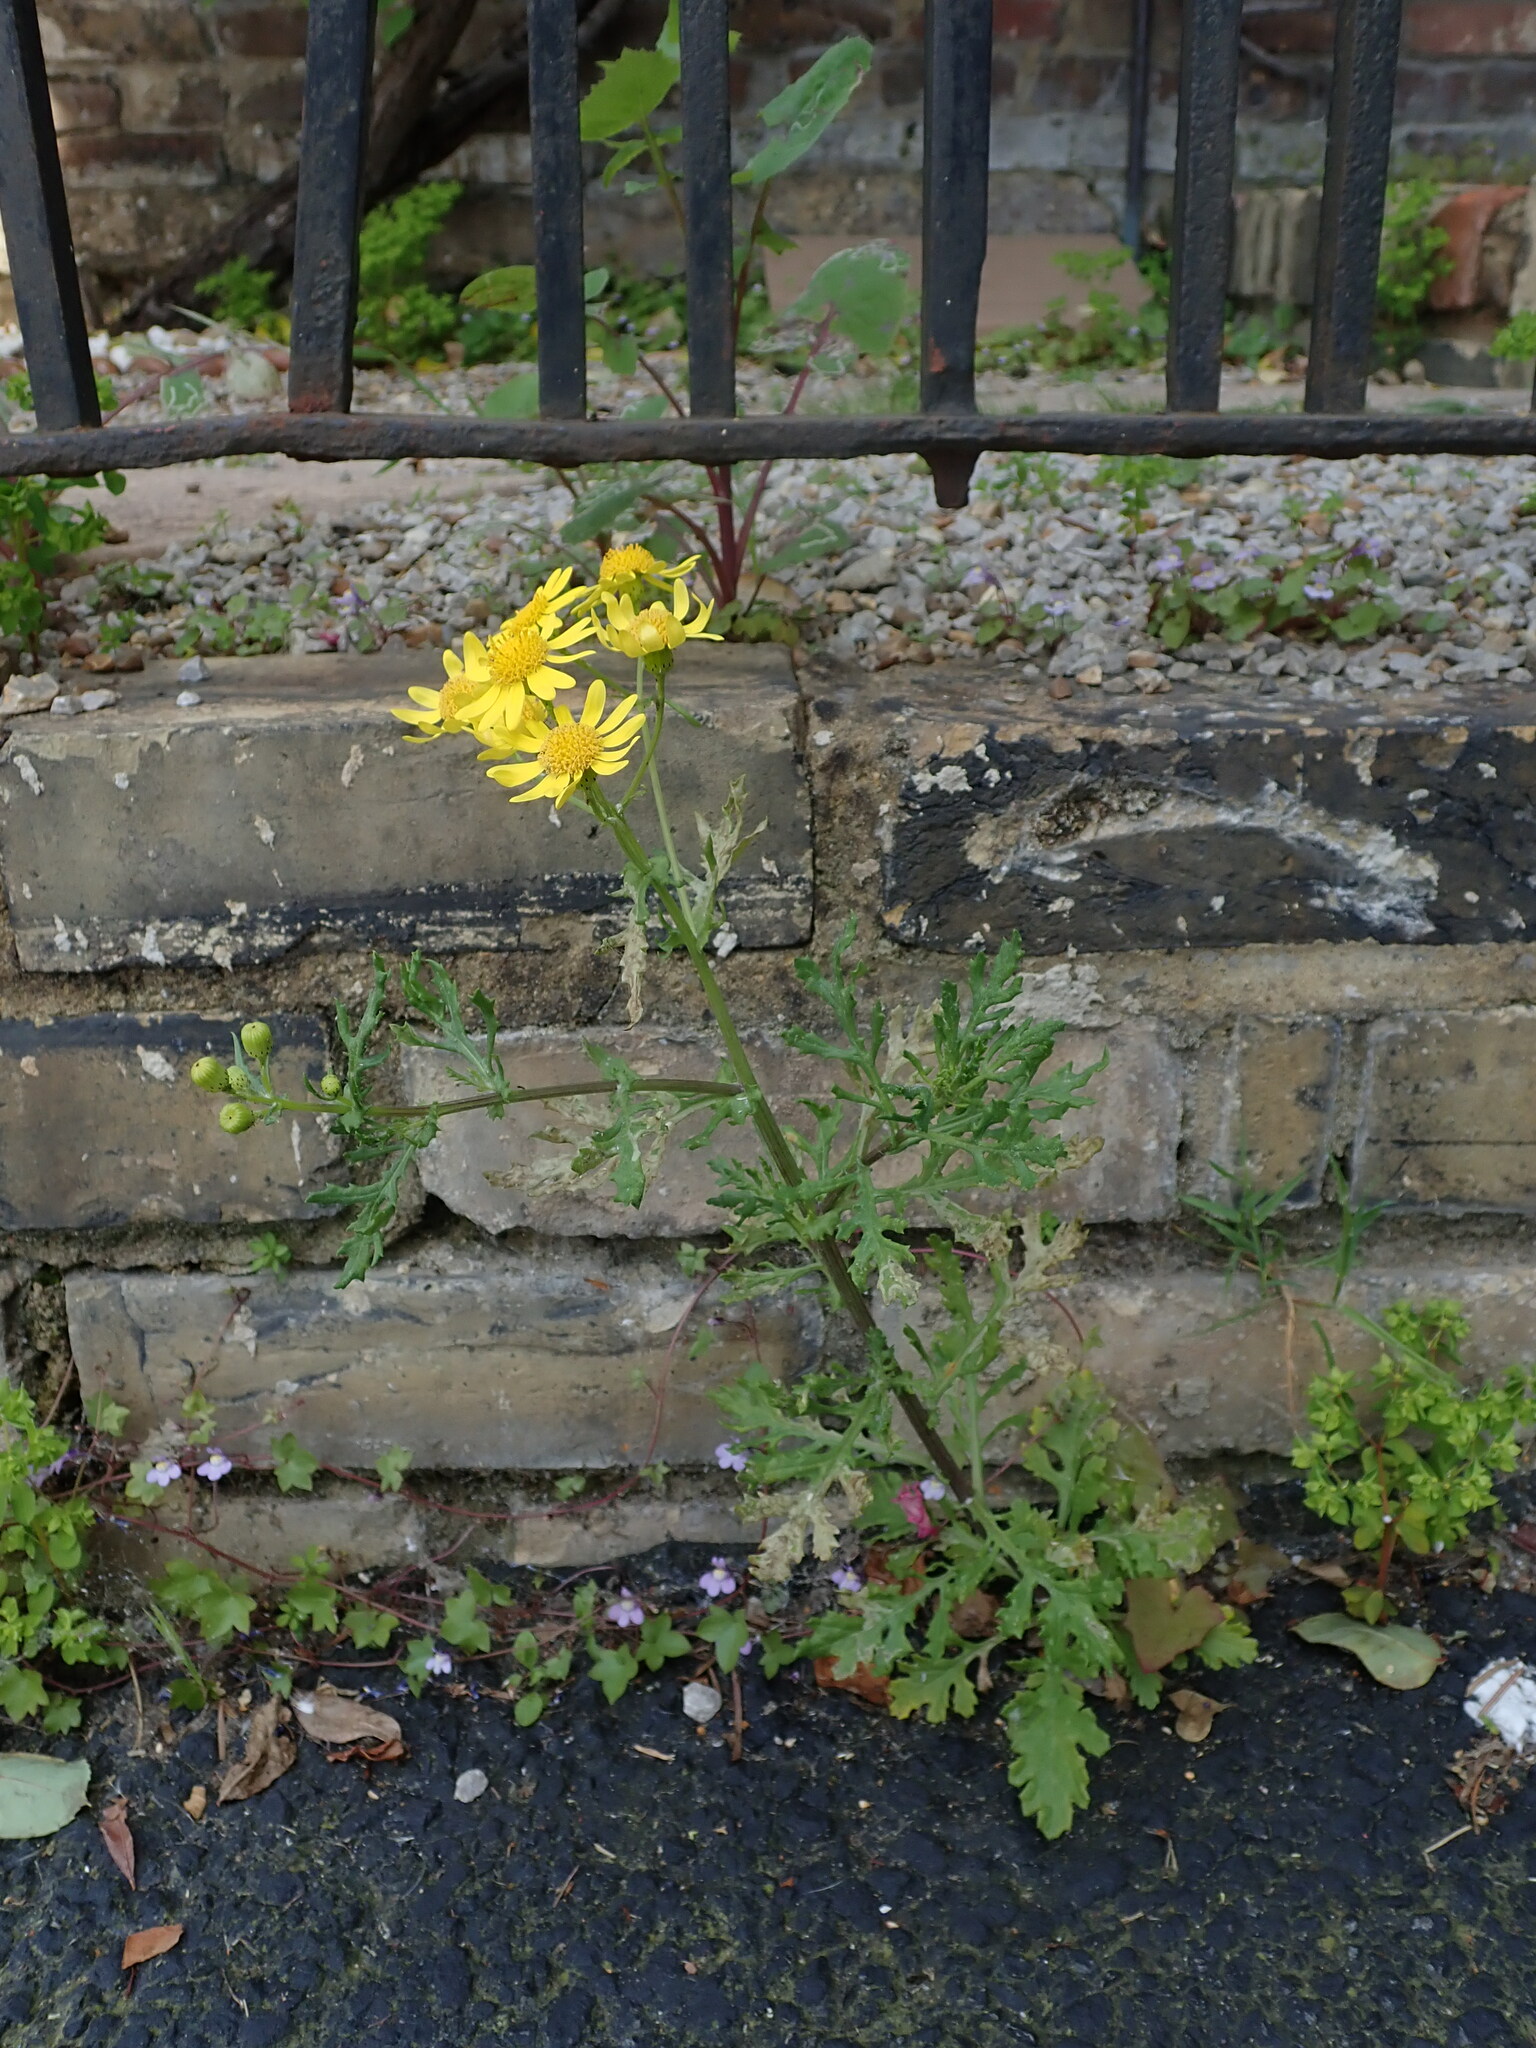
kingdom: Plantae
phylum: Tracheophyta
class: Magnoliopsida
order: Asterales
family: Asteraceae
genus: Senecio
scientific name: Senecio squalidus
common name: Oxford ragwort
